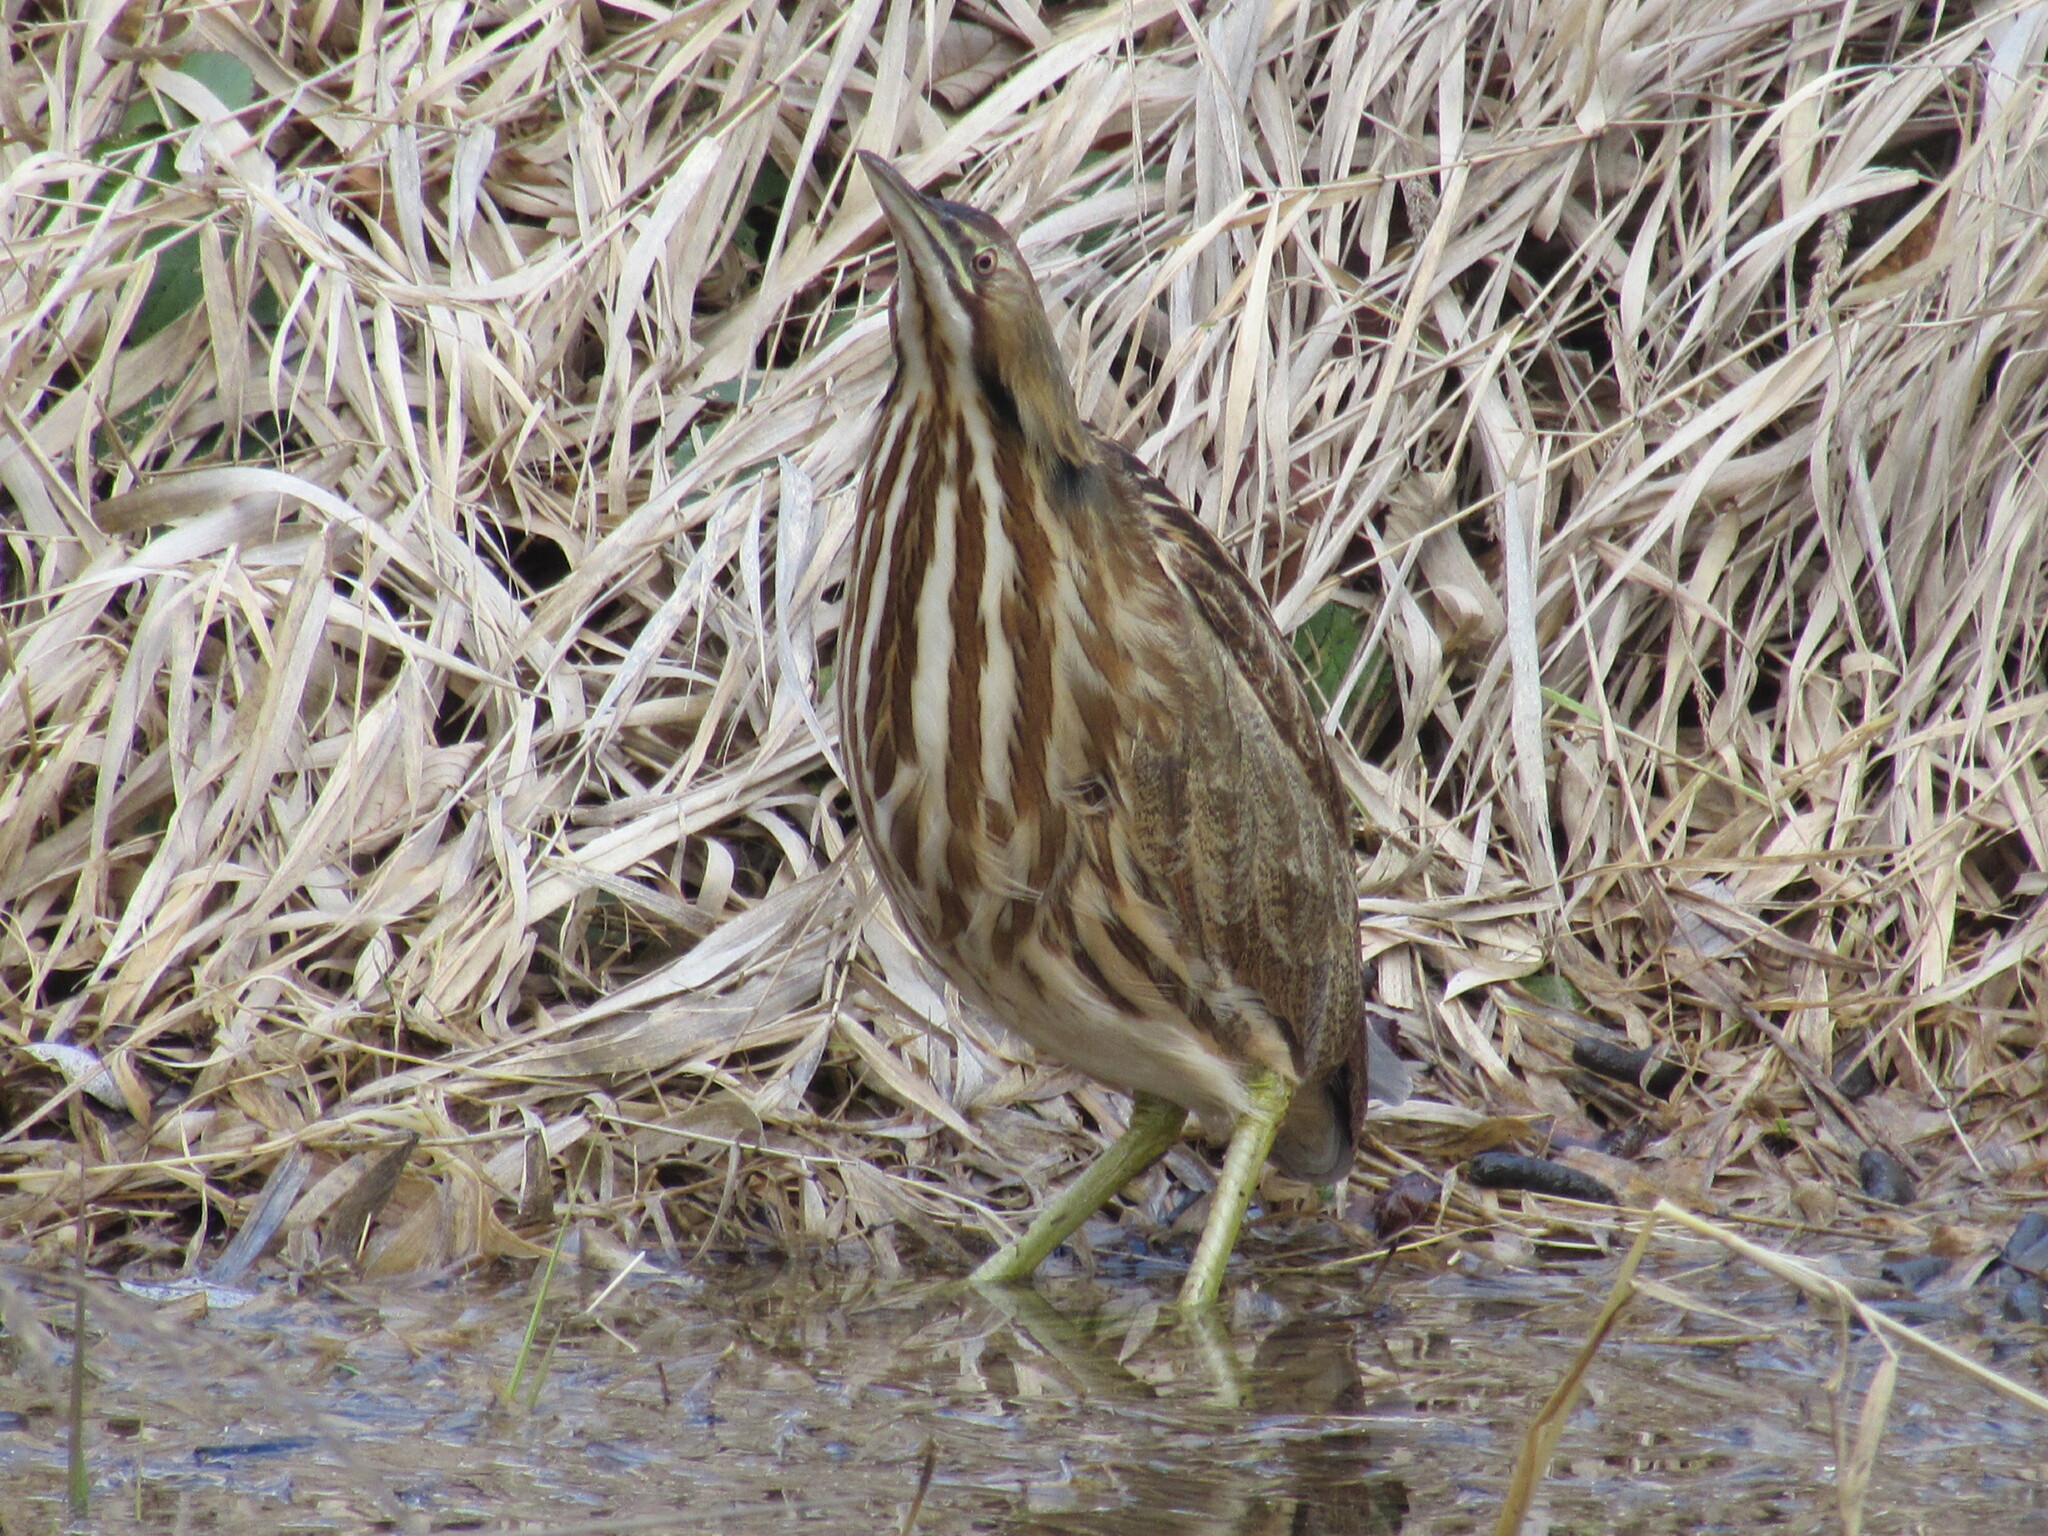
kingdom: Animalia
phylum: Chordata
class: Aves
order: Pelecaniformes
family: Ardeidae
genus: Botaurus
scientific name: Botaurus lentiginosus
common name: American bittern
